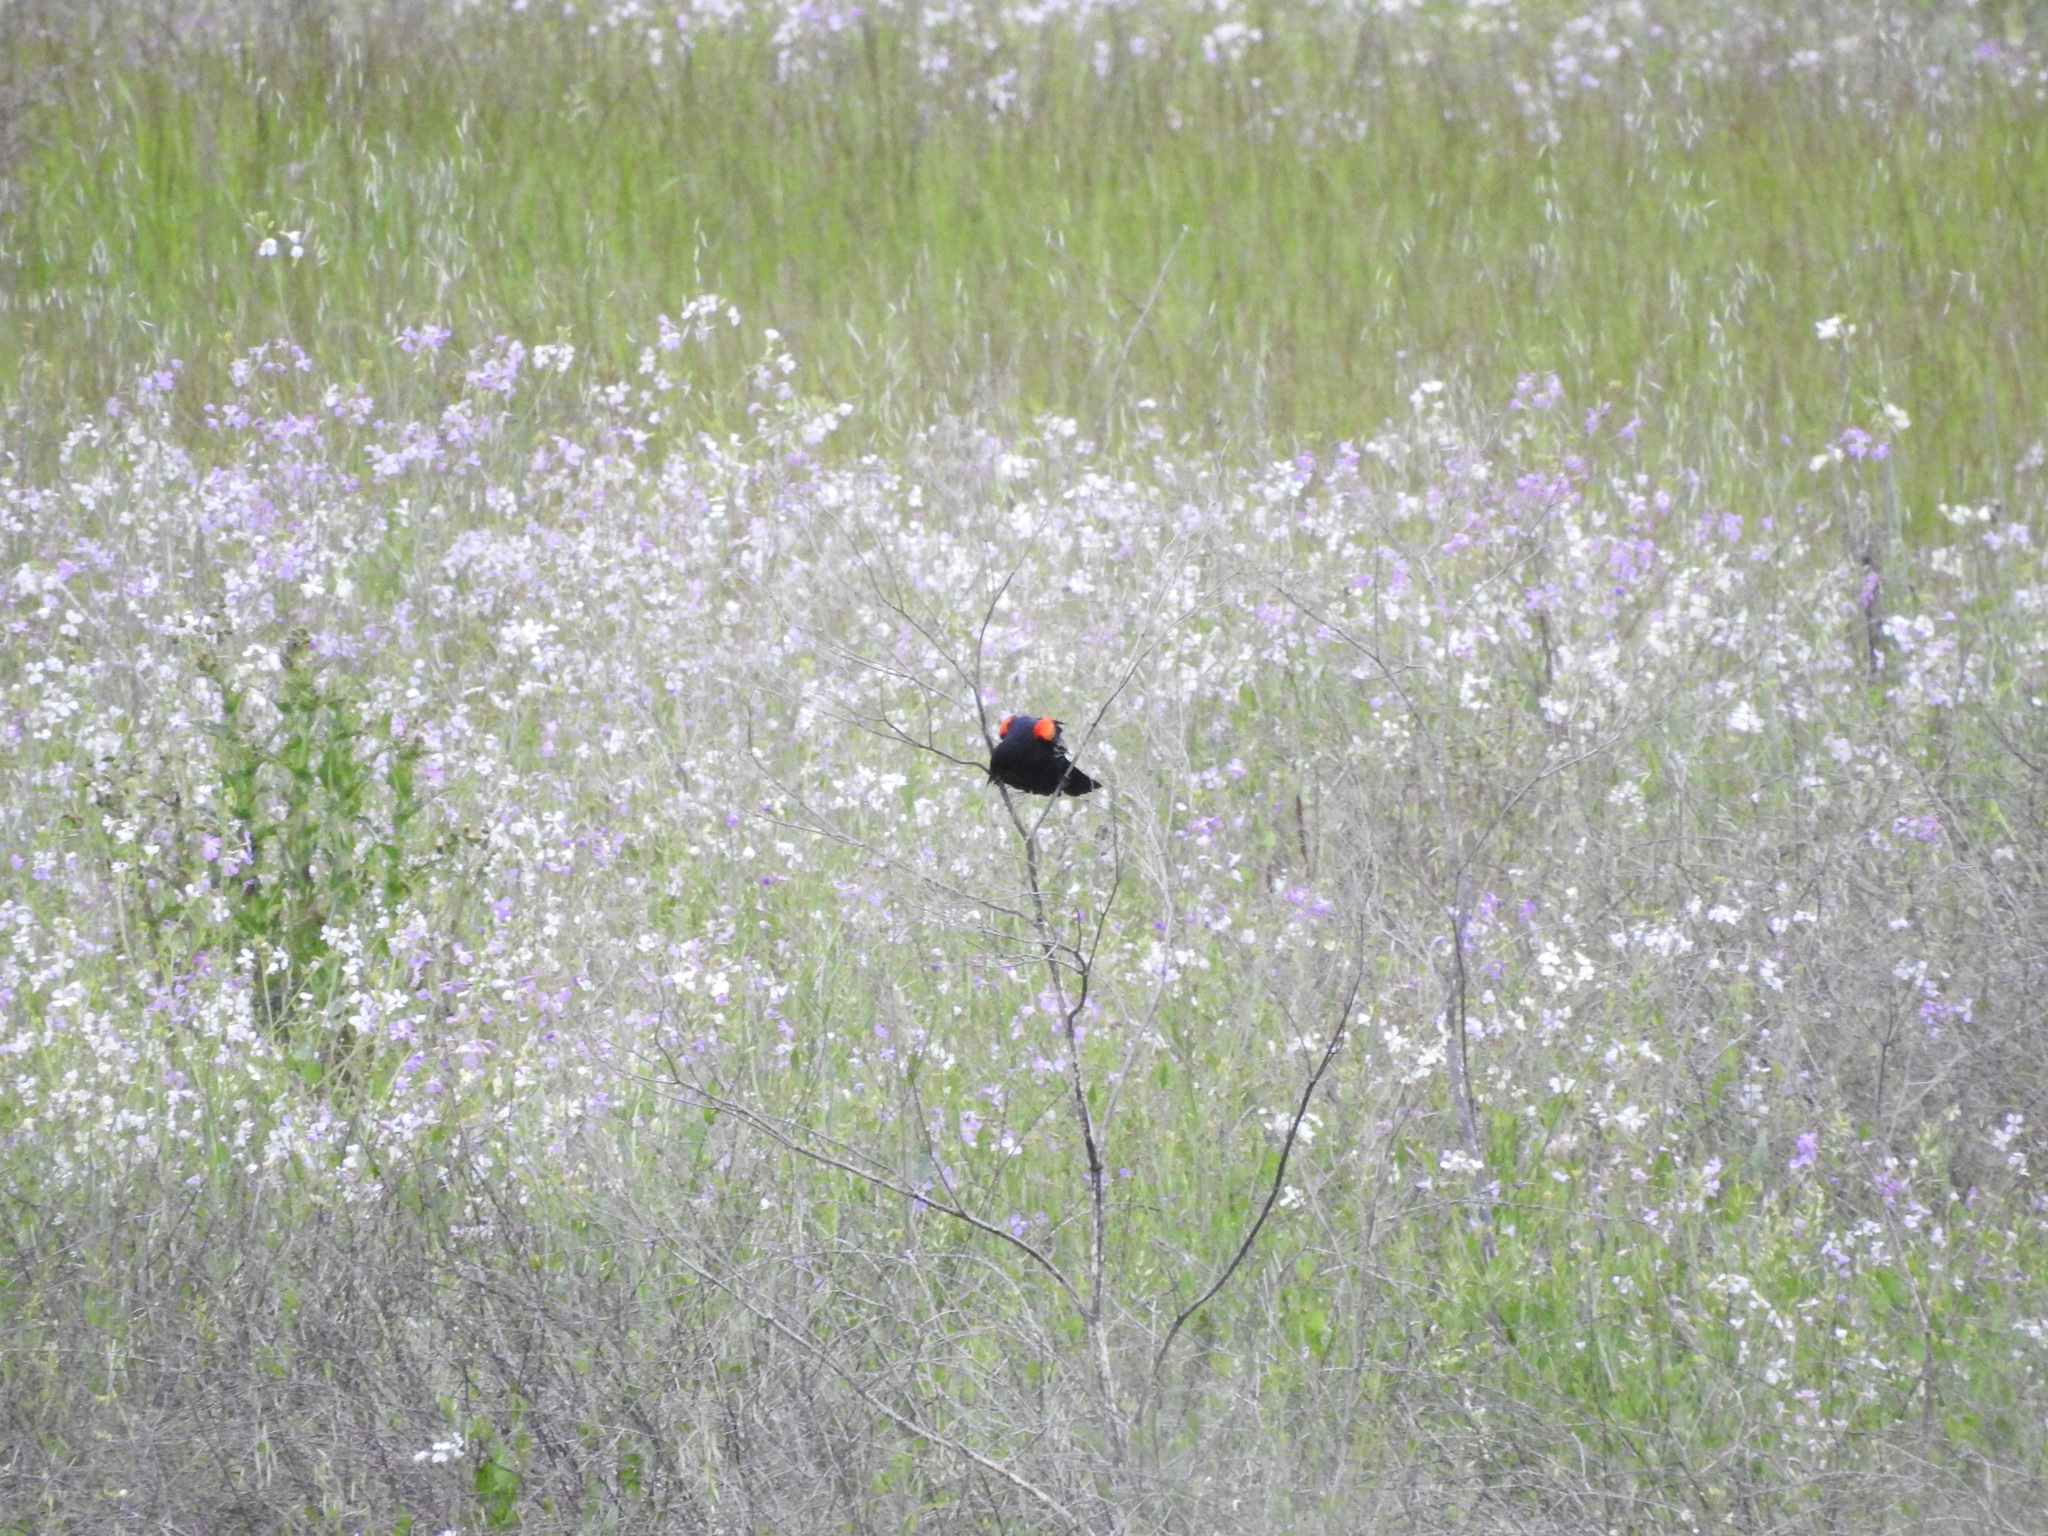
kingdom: Animalia
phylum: Chordata
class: Aves
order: Passeriformes
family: Icteridae
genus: Agelaius
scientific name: Agelaius phoeniceus
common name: Red-winged blackbird
